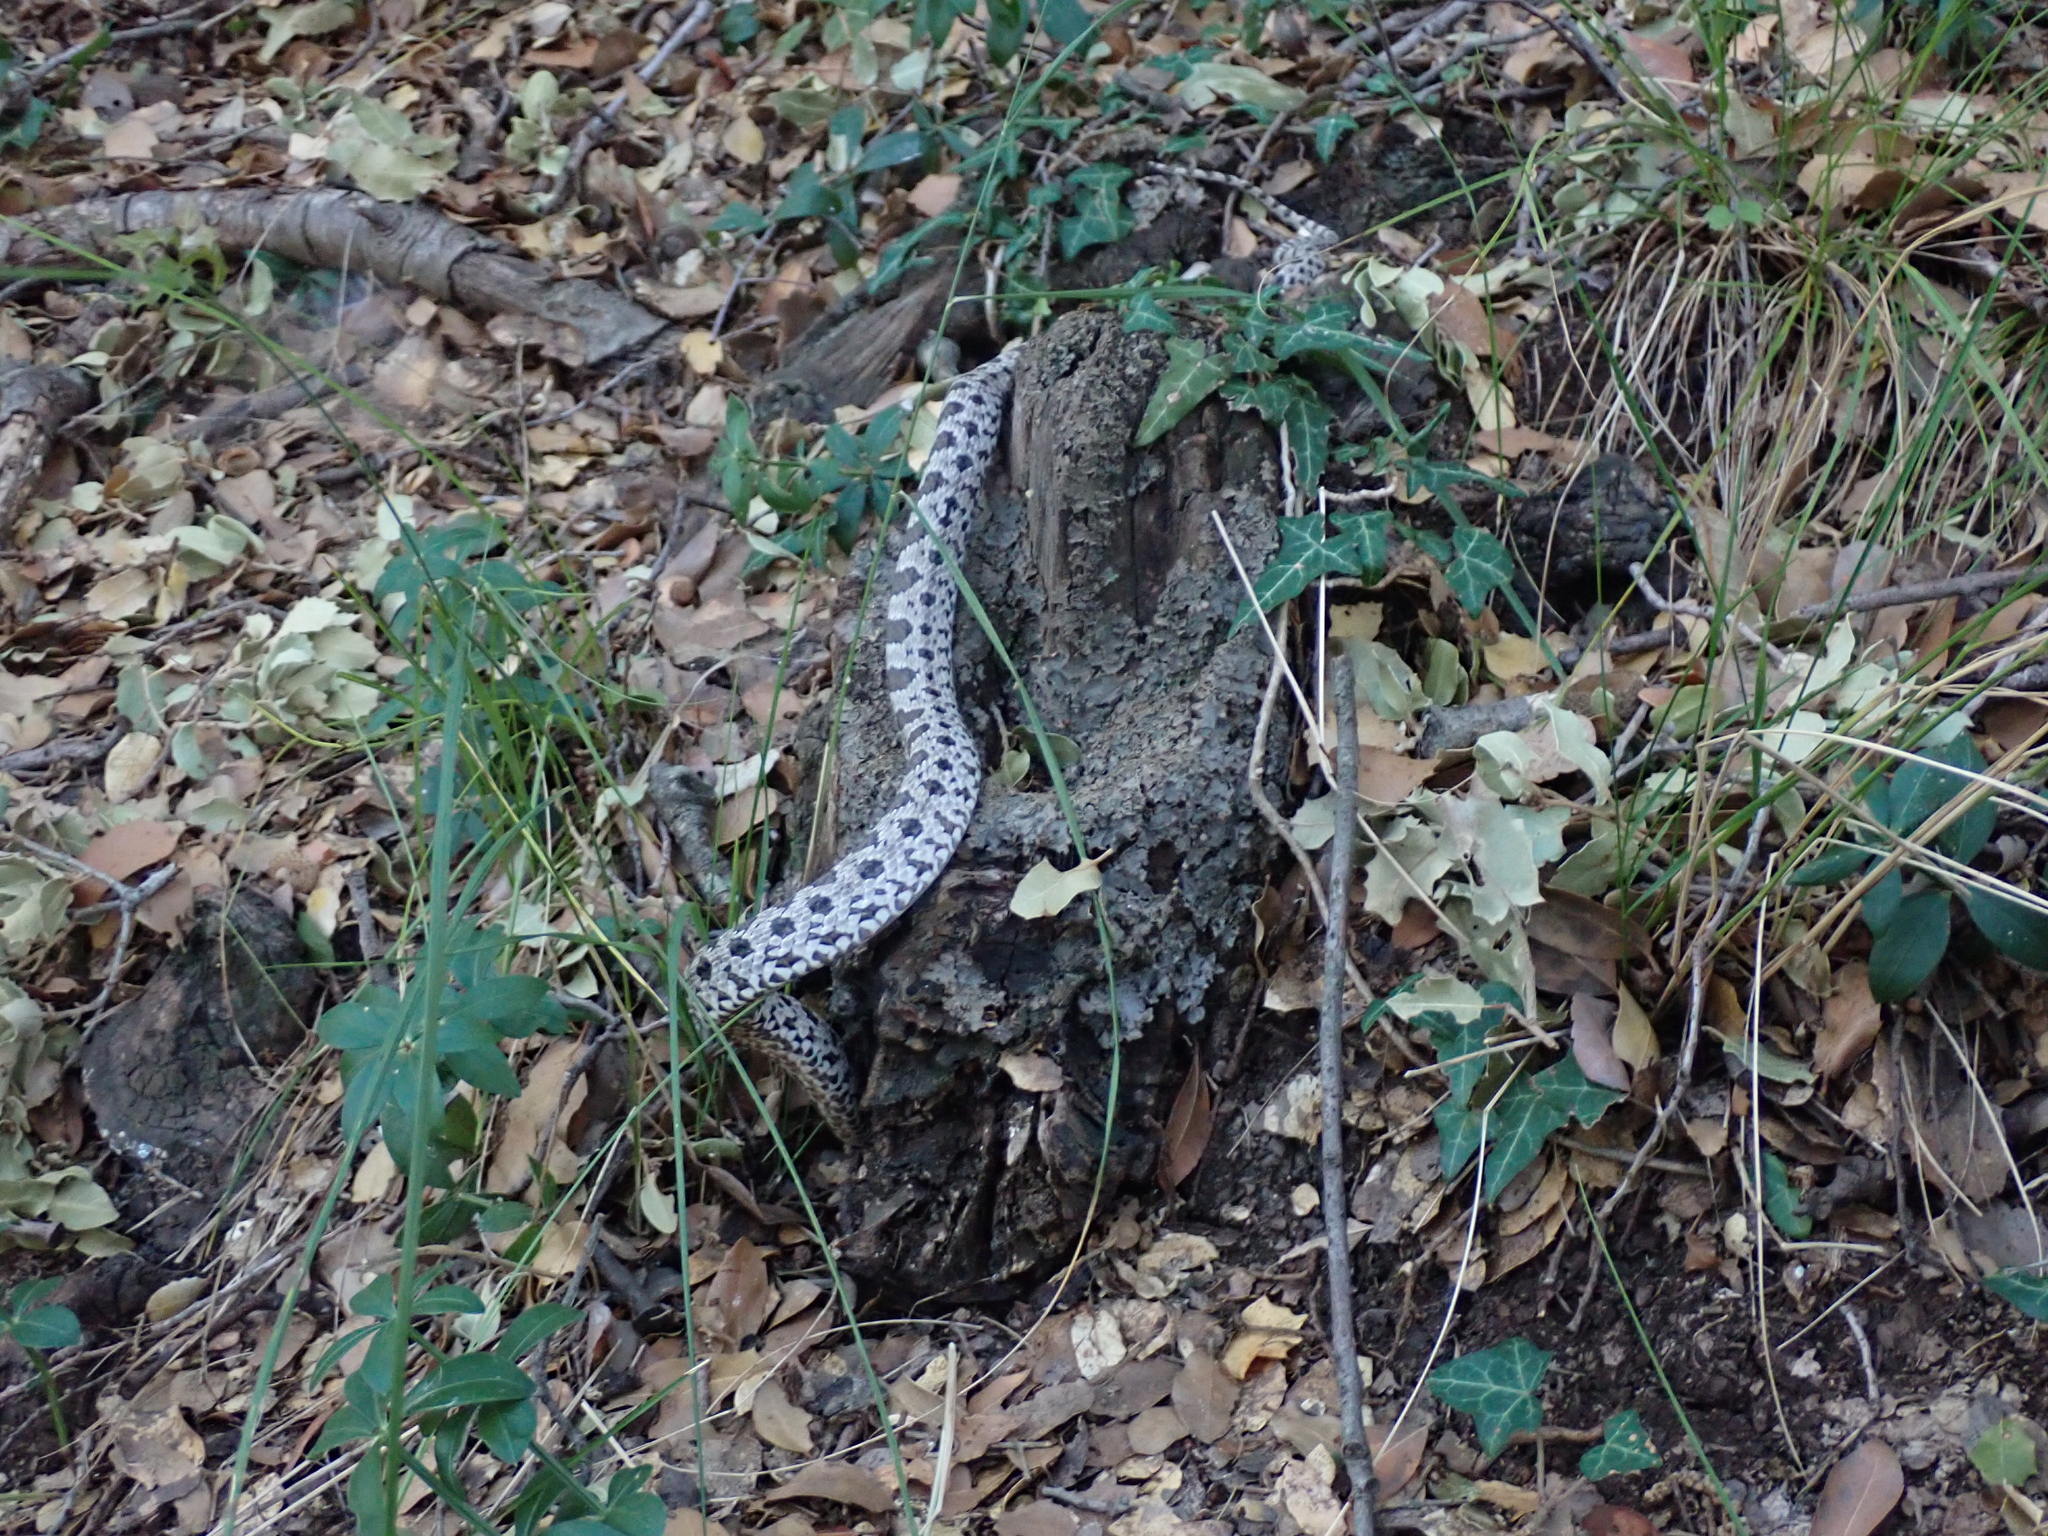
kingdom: Animalia
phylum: Chordata
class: Squamata
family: Colubridae
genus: Elaphe
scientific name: Elaphe quatuorlineata
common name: Four-lined snake
